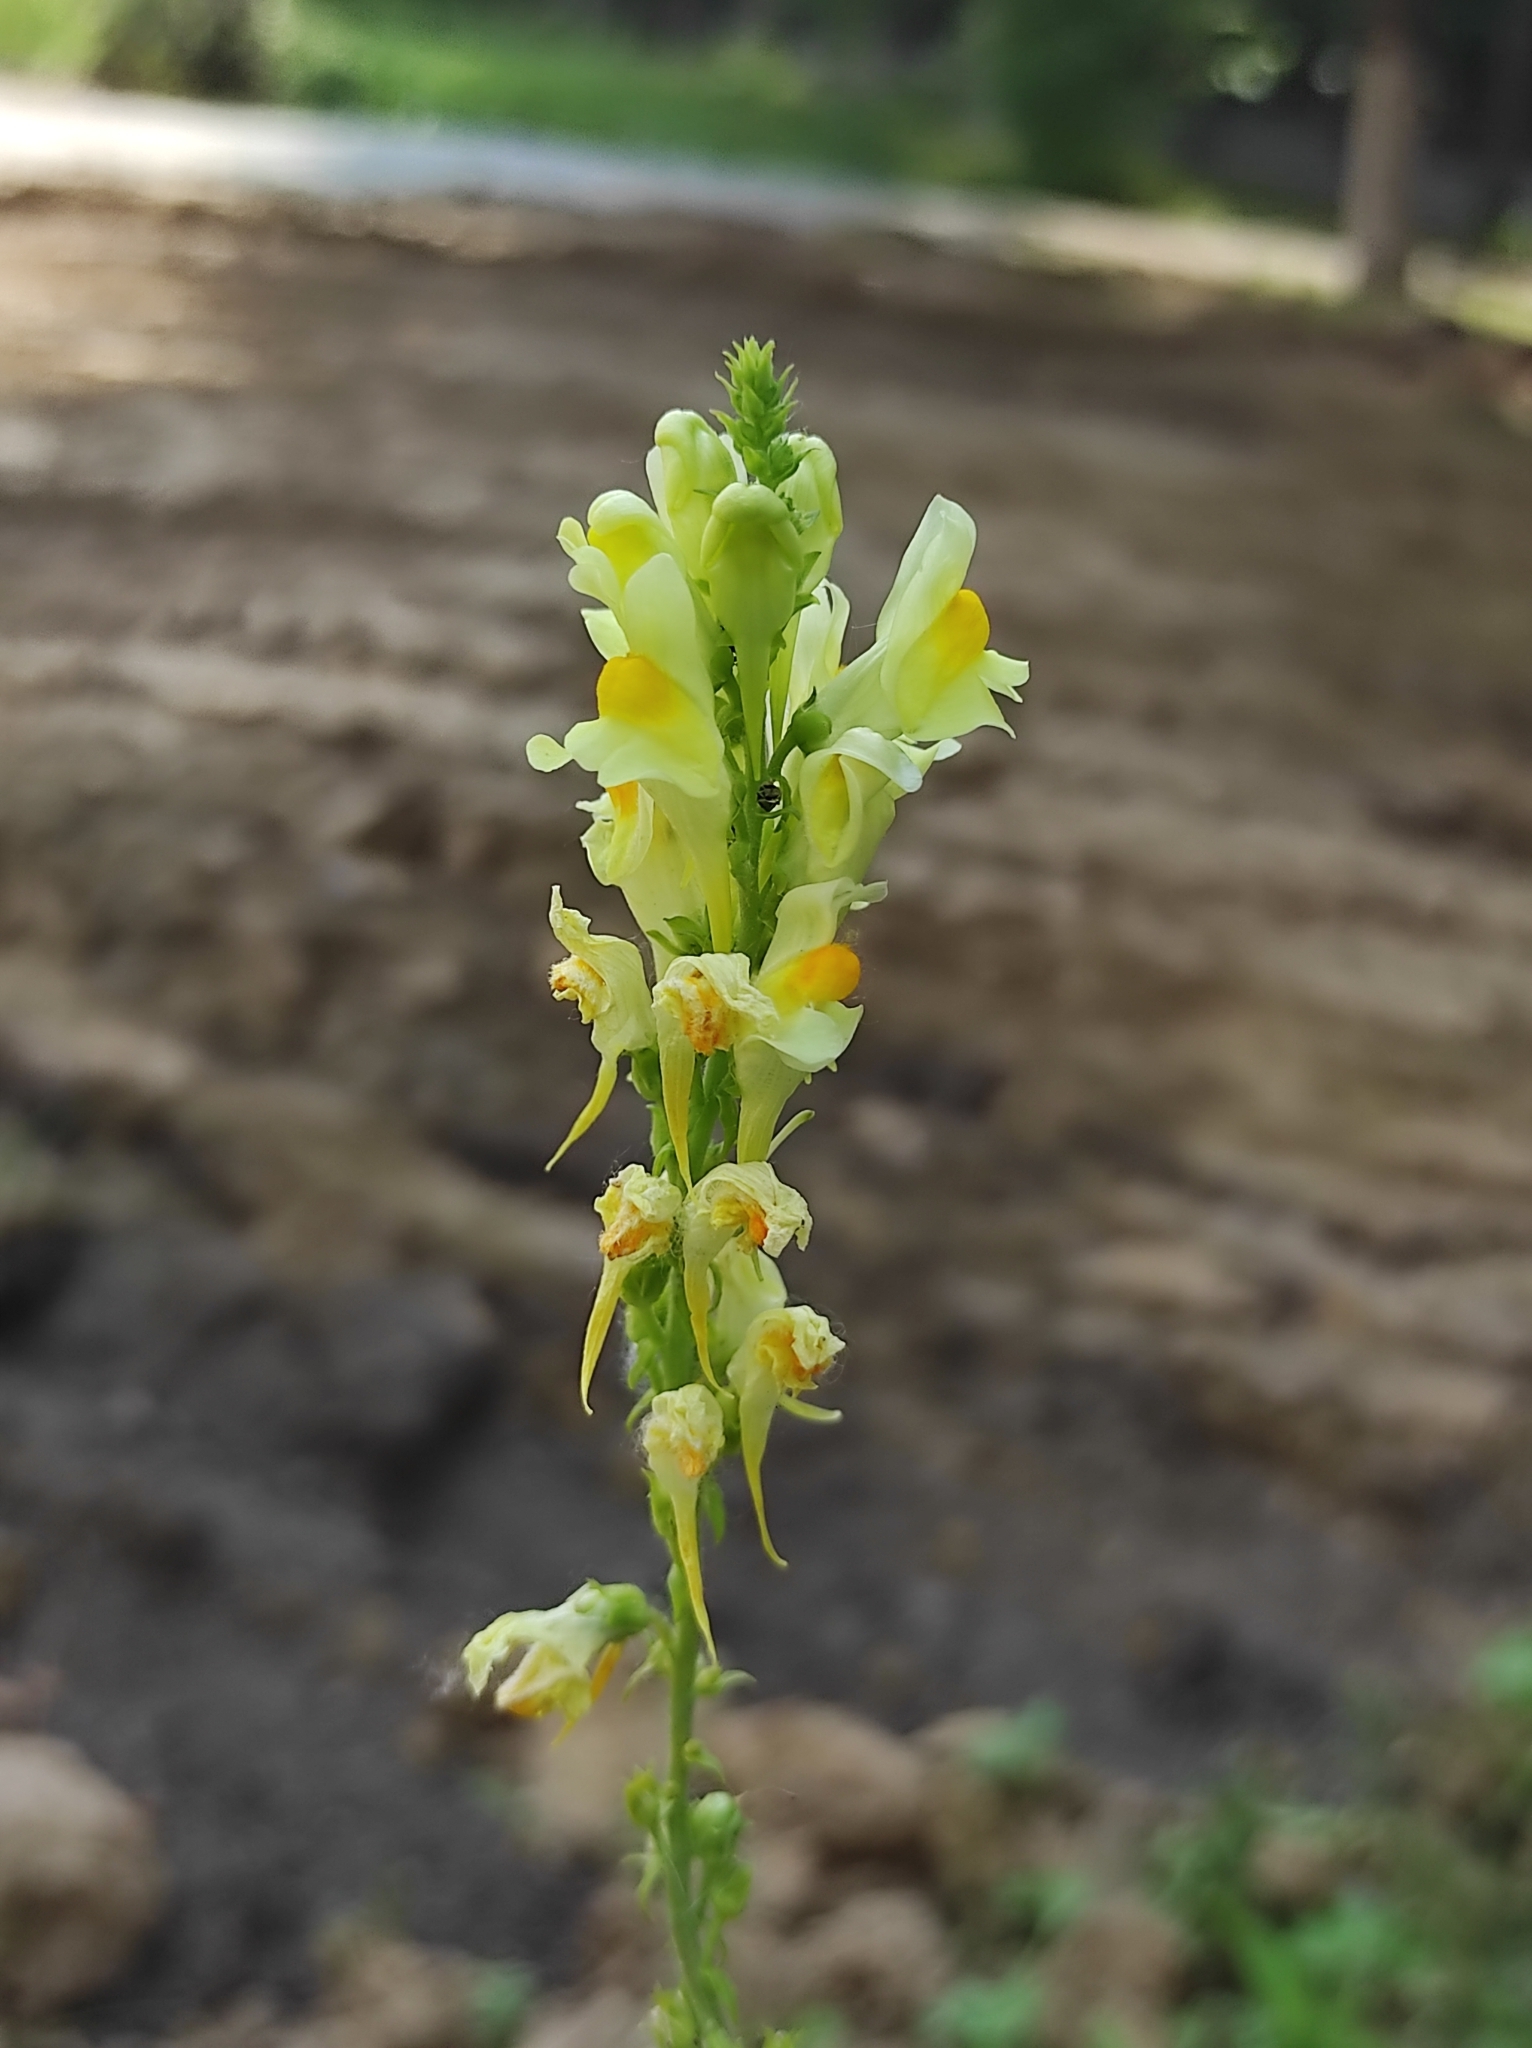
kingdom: Plantae
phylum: Tracheophyta
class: Magnoliopsida
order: Lamiales
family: Plantaginaceae
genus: Linaria
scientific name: Linaria vulgaris
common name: Butter and eggs
